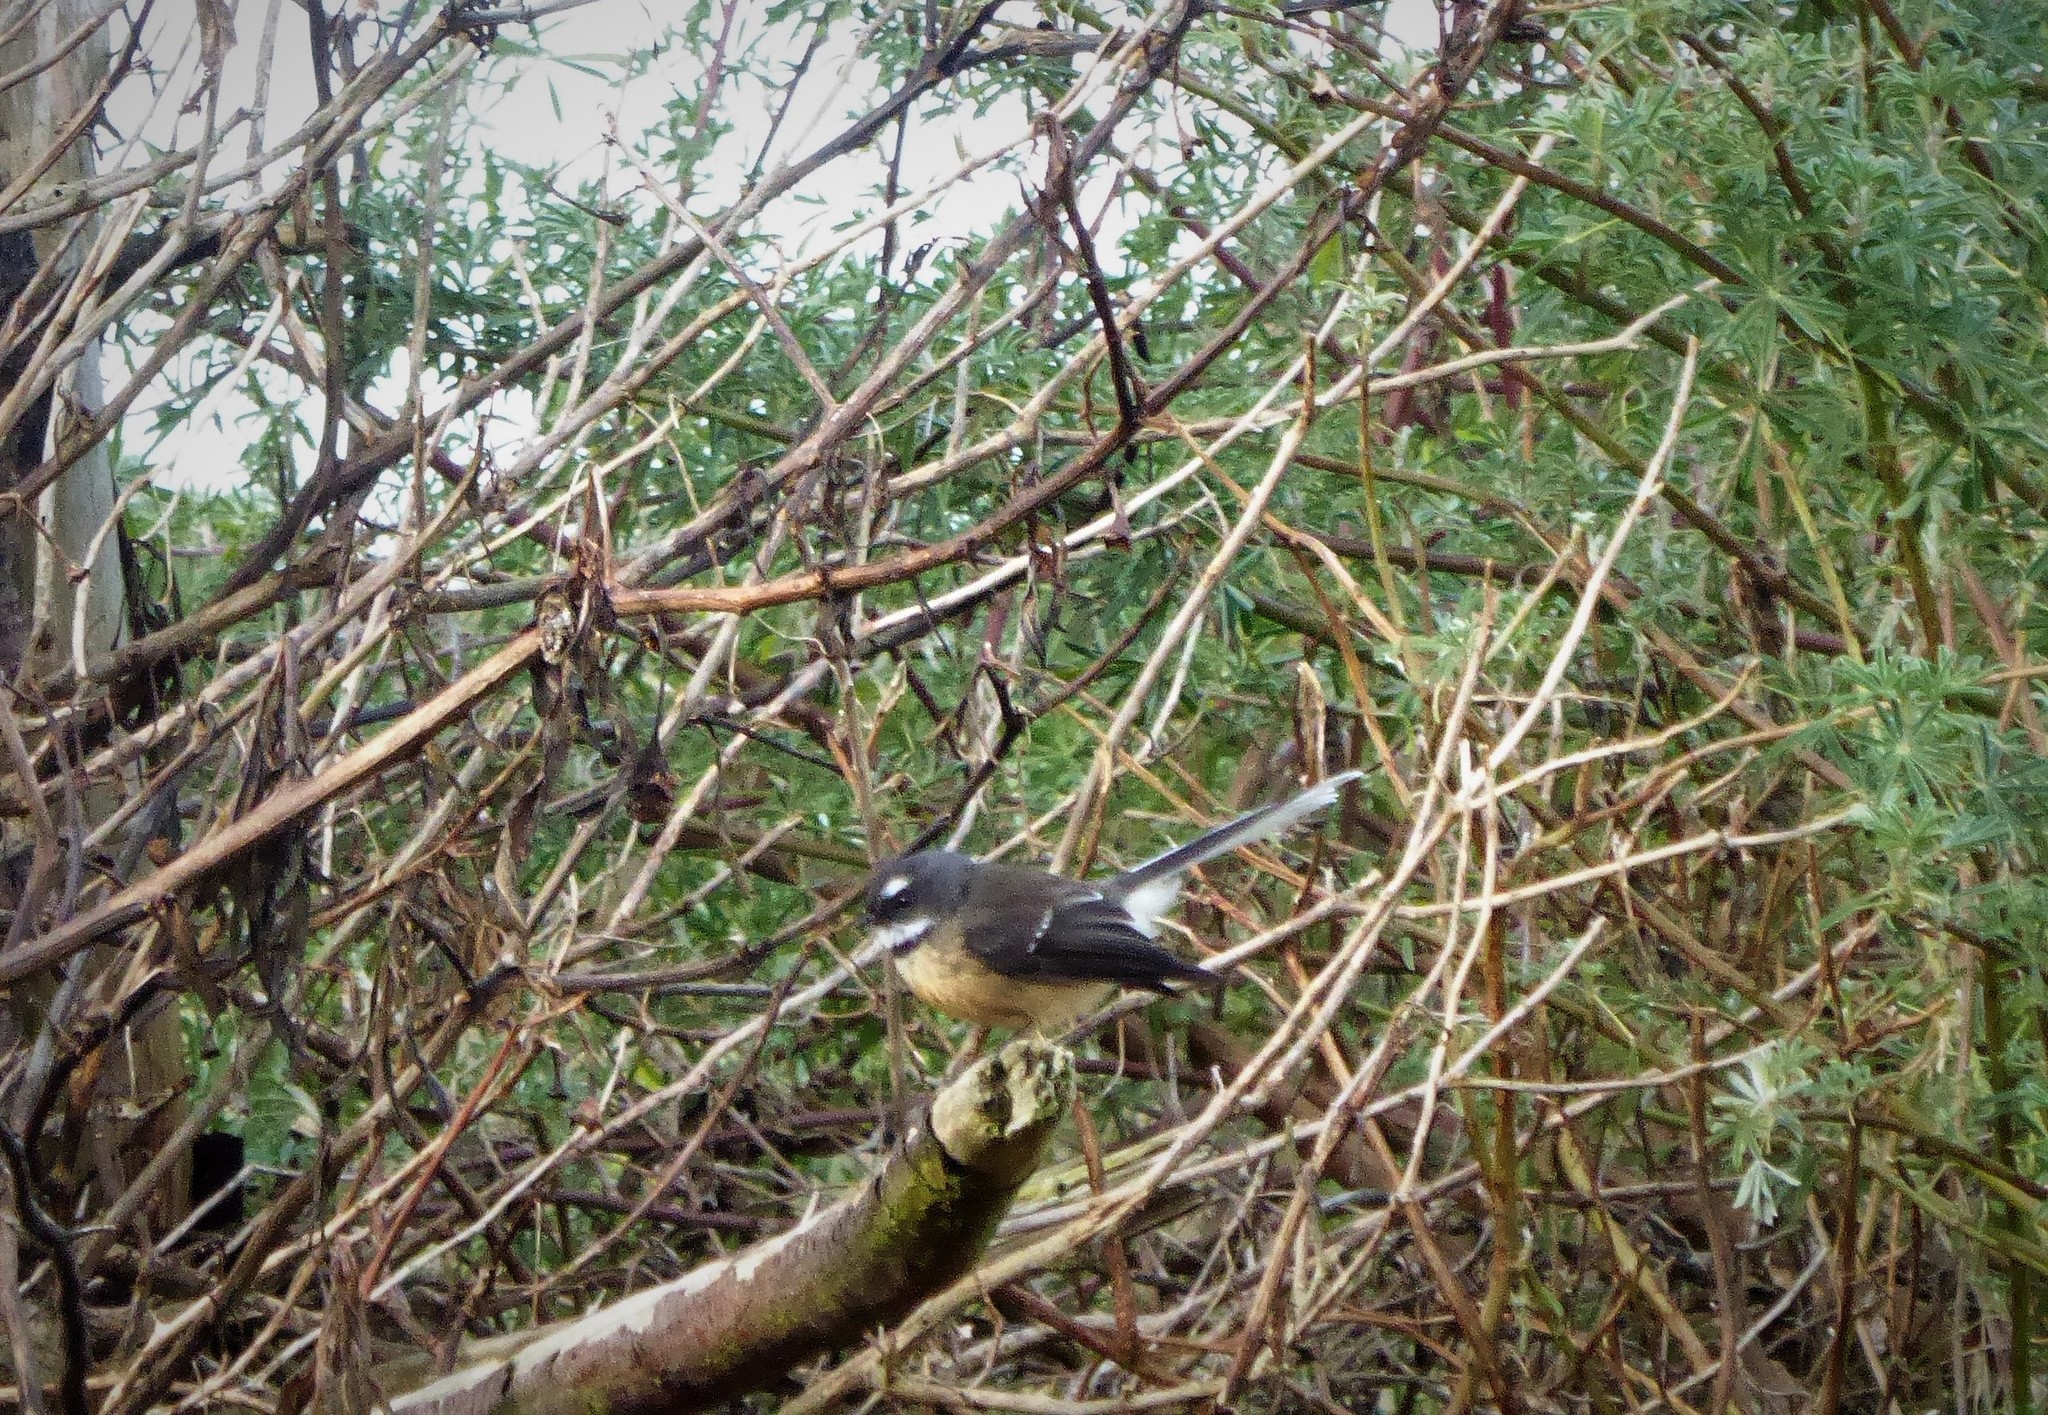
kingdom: Animalia
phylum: Chordata
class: Aves
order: Passeriformes
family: Rhipiduridae
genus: Rhipidura
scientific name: Rhipidura fuliginosa
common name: New zealand fantail
